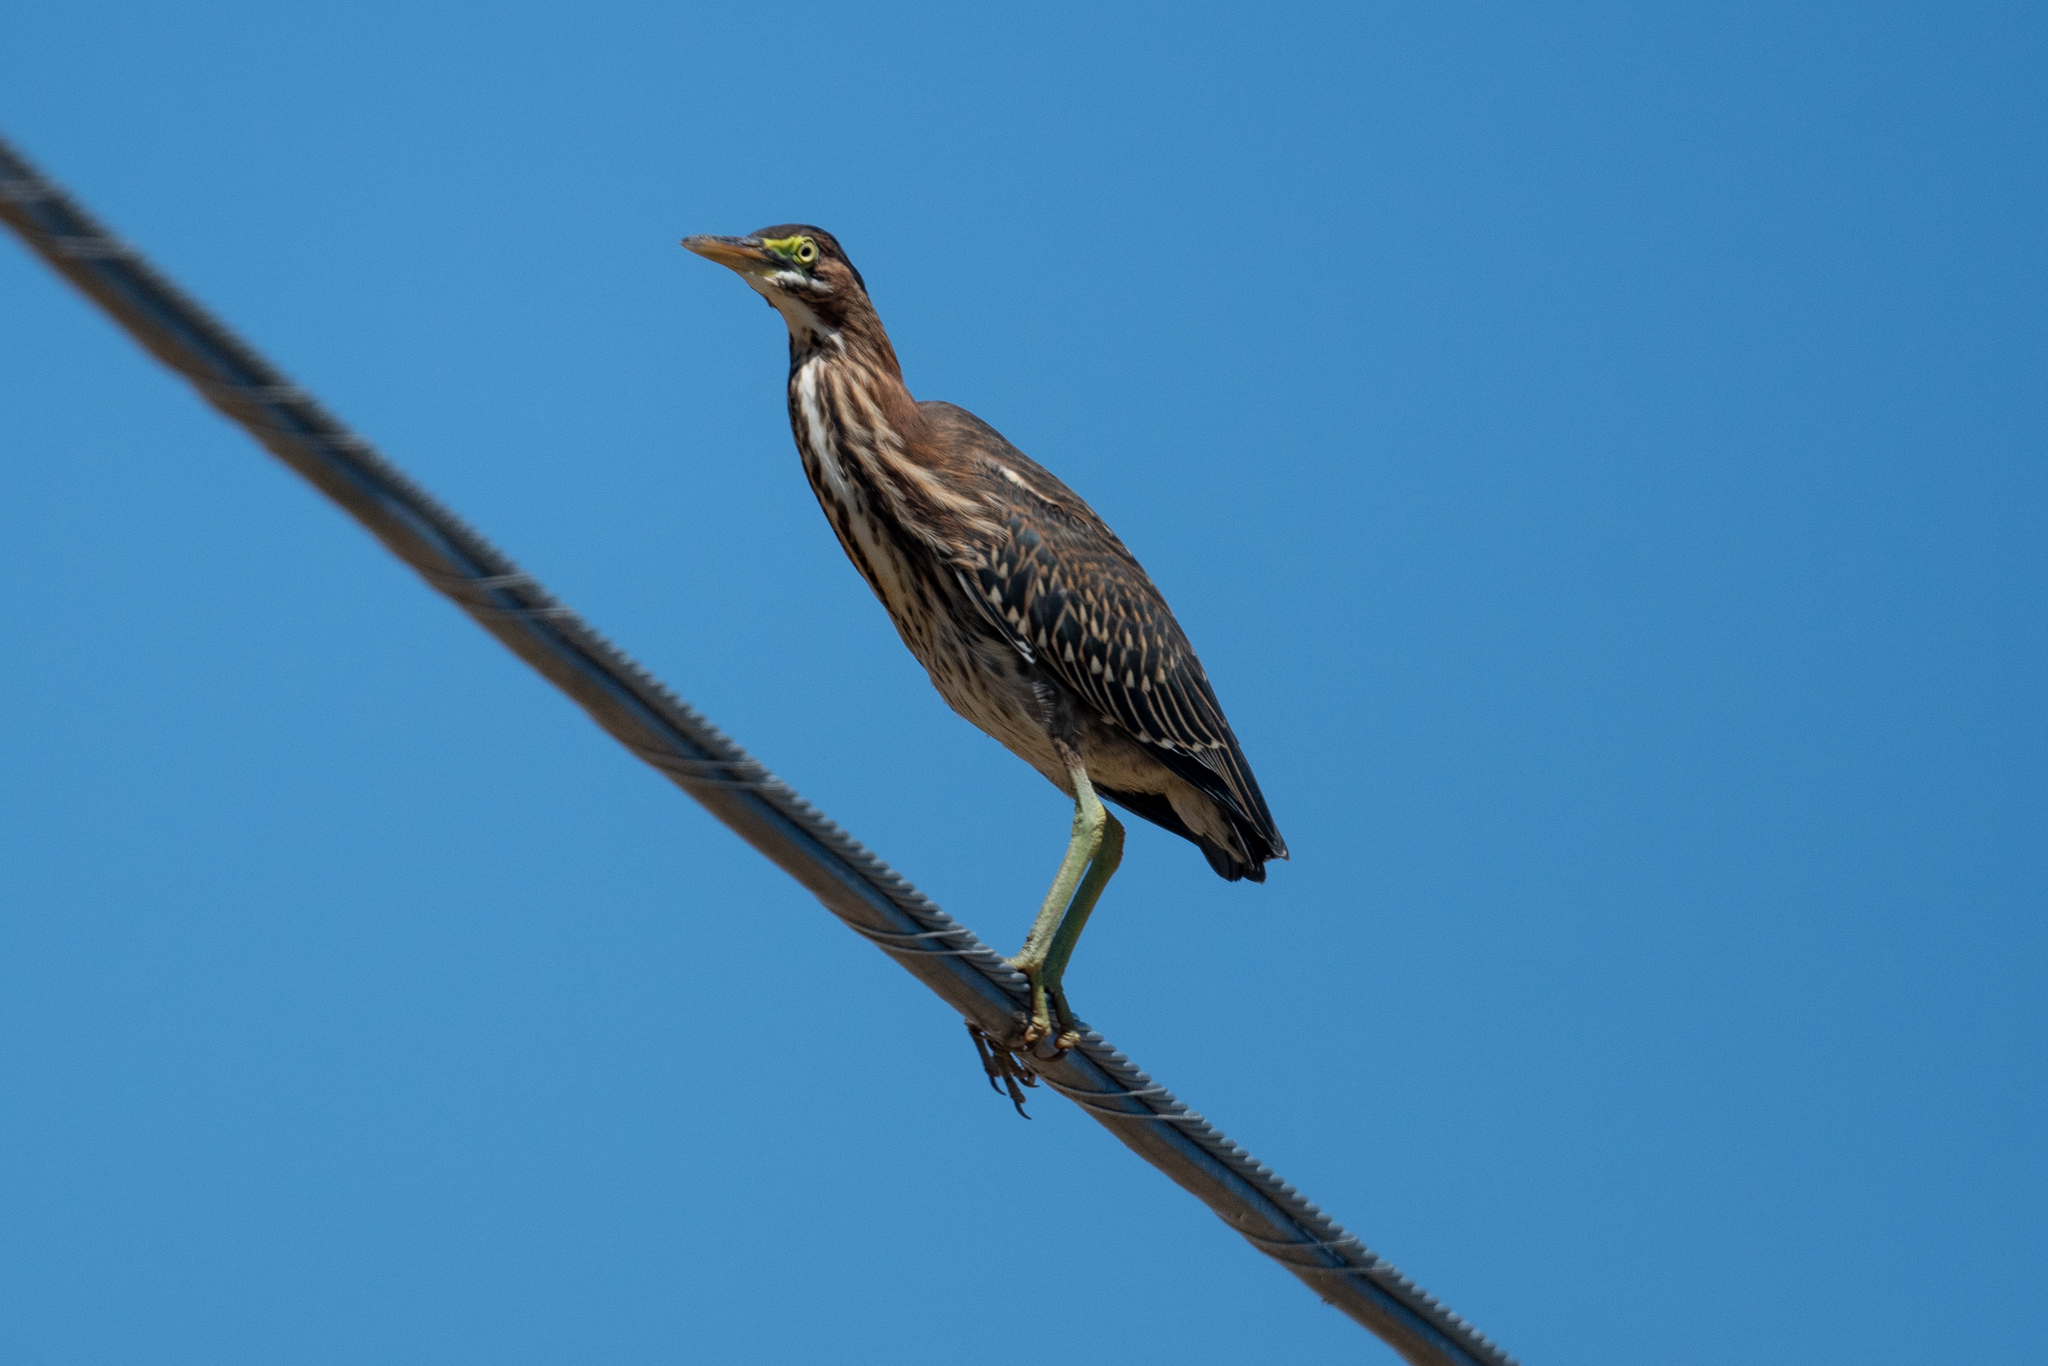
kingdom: Animalia
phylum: Chordata
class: Aves
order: Pelecaniformes
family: Ardeidae
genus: Butorides
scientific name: Butorides virescens
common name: Green heron
